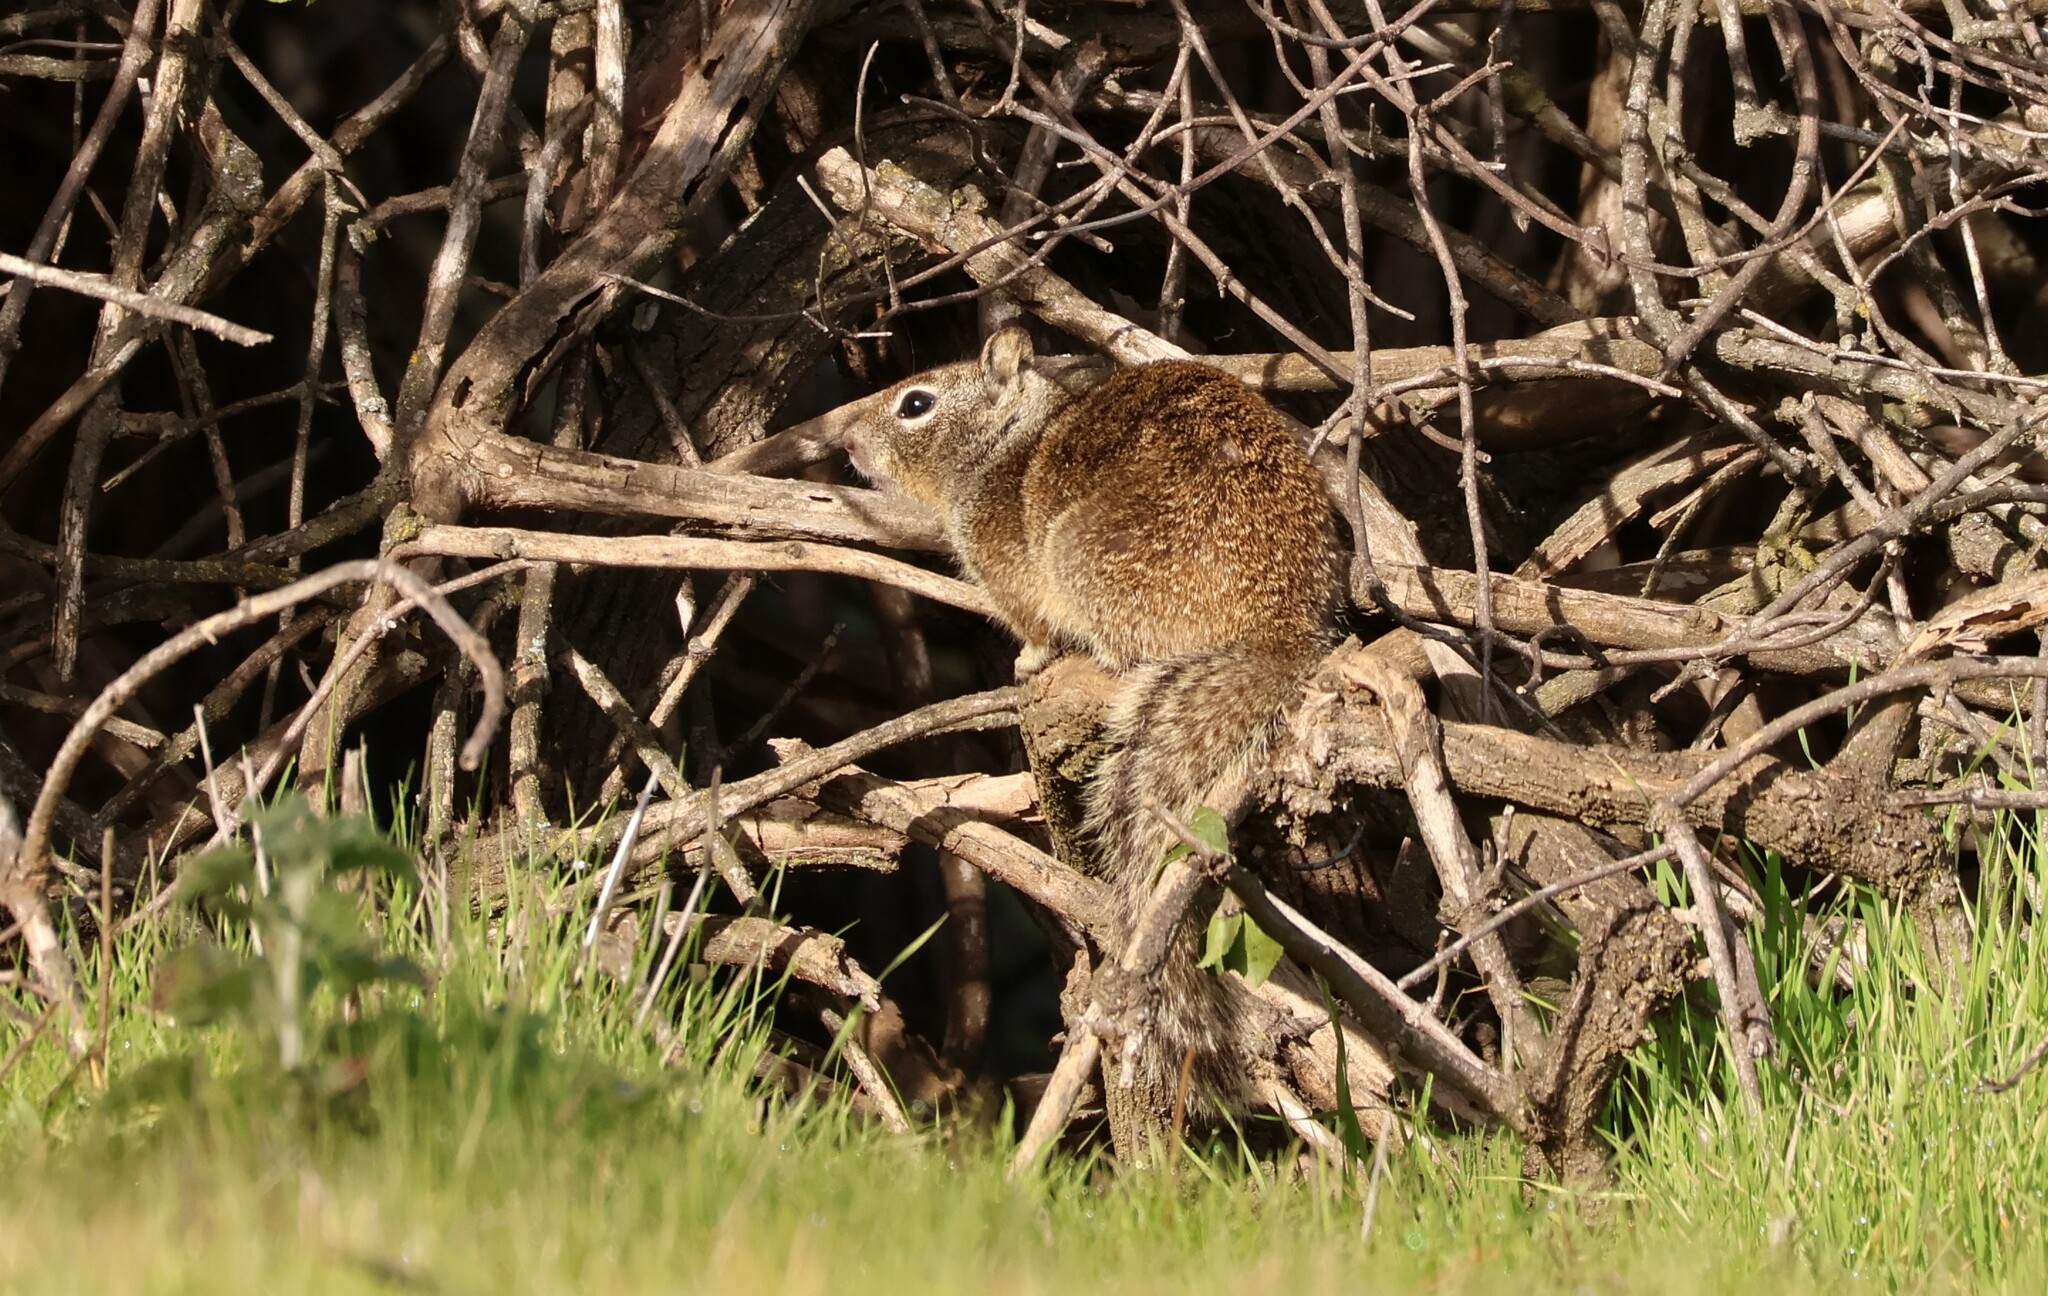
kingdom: Animalia
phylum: Chordata
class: Mammalia
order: Rodentia
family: Sciuridae
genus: Otospermophilus
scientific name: Otospermophilus beecheyi
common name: California ground squirrel
